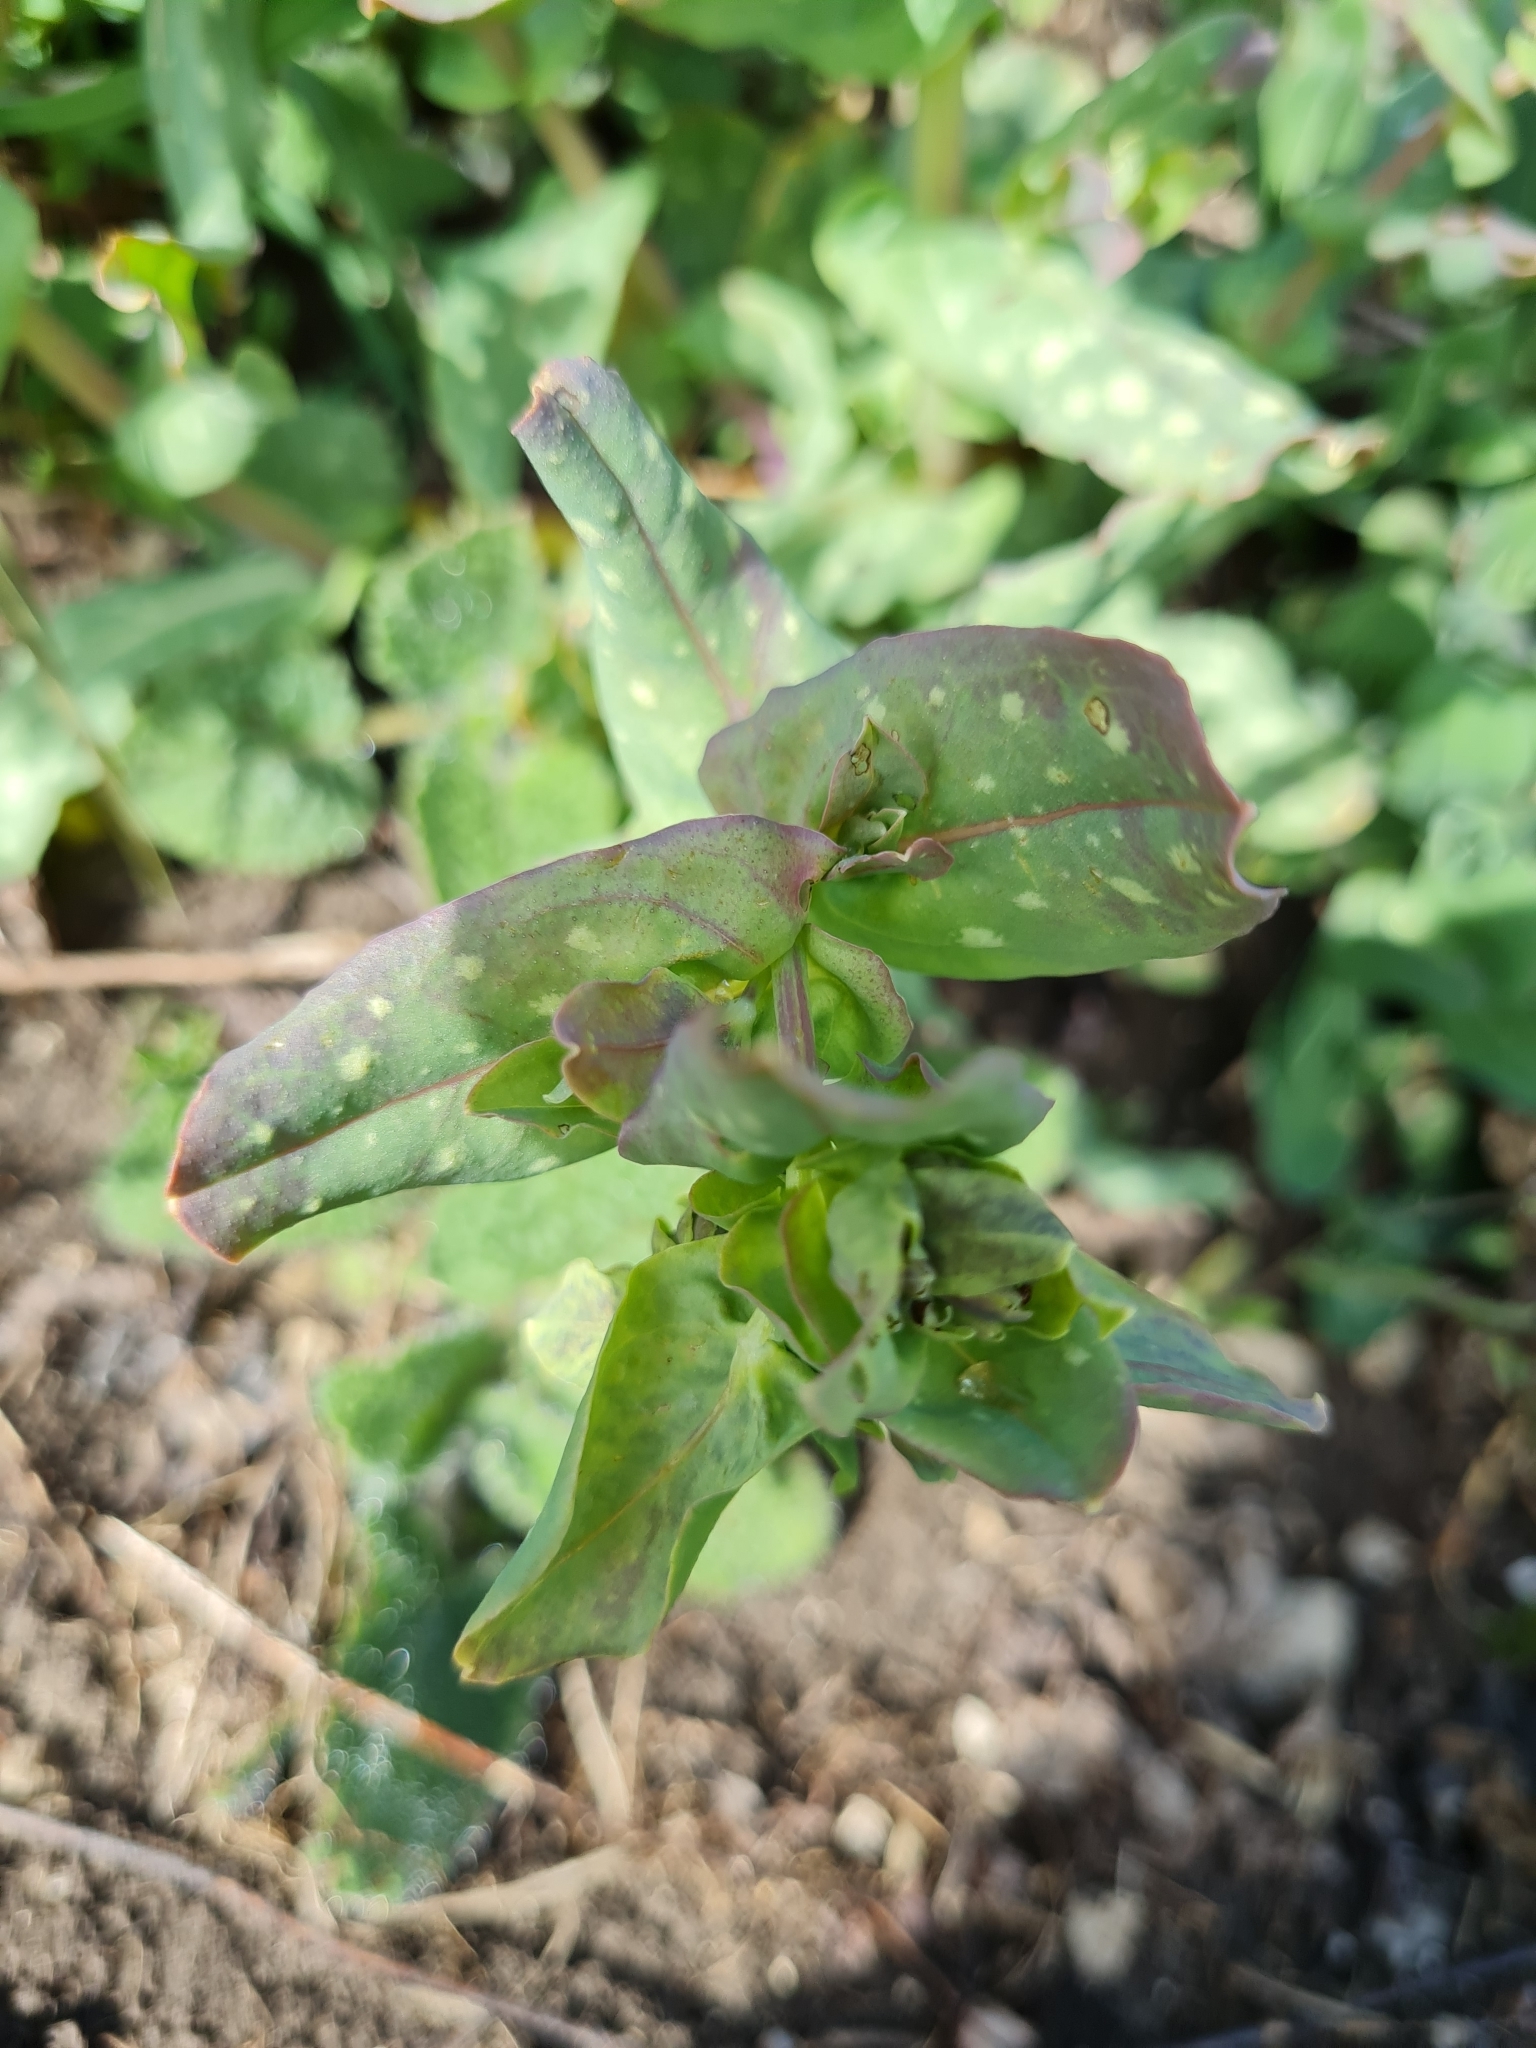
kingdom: Plantae
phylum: Tracheophyta
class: Magnoliopsida
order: Boraginales
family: Boraginaceae
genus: Cerinthe
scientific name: Cerinthe minor
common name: Lesser honeywort
